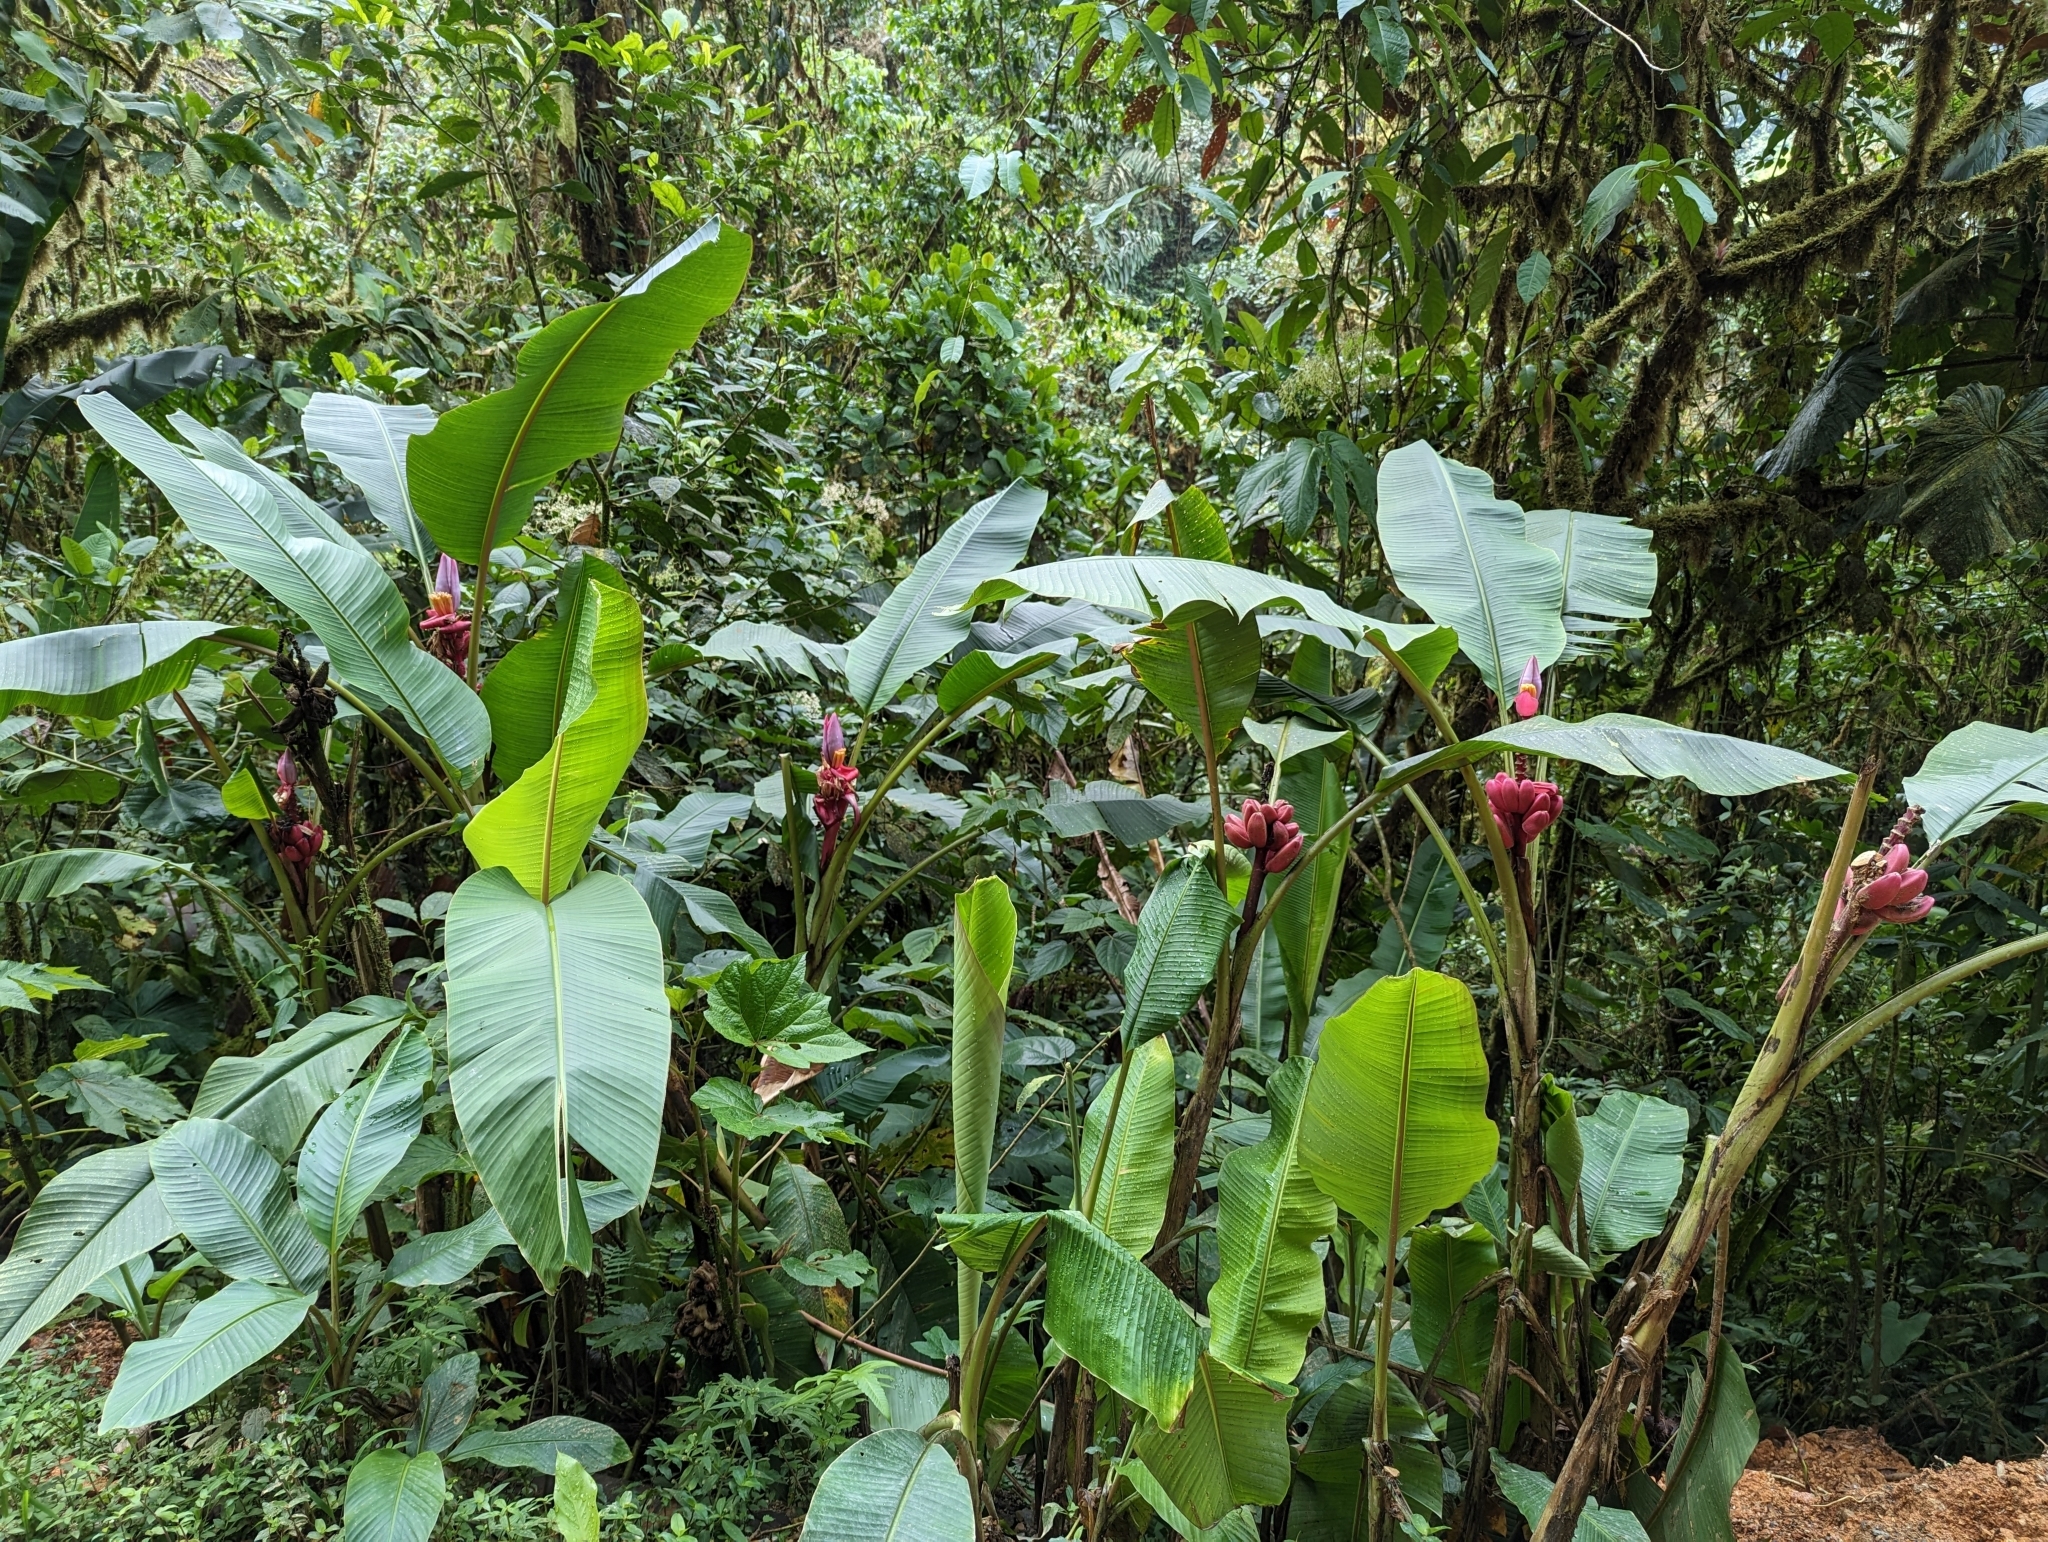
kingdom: Plantae
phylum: Tracheophyta
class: Liliopsida
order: Zingiberales
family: Musaceae
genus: Musa
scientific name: Musa velutina
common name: Pink velvet banana
